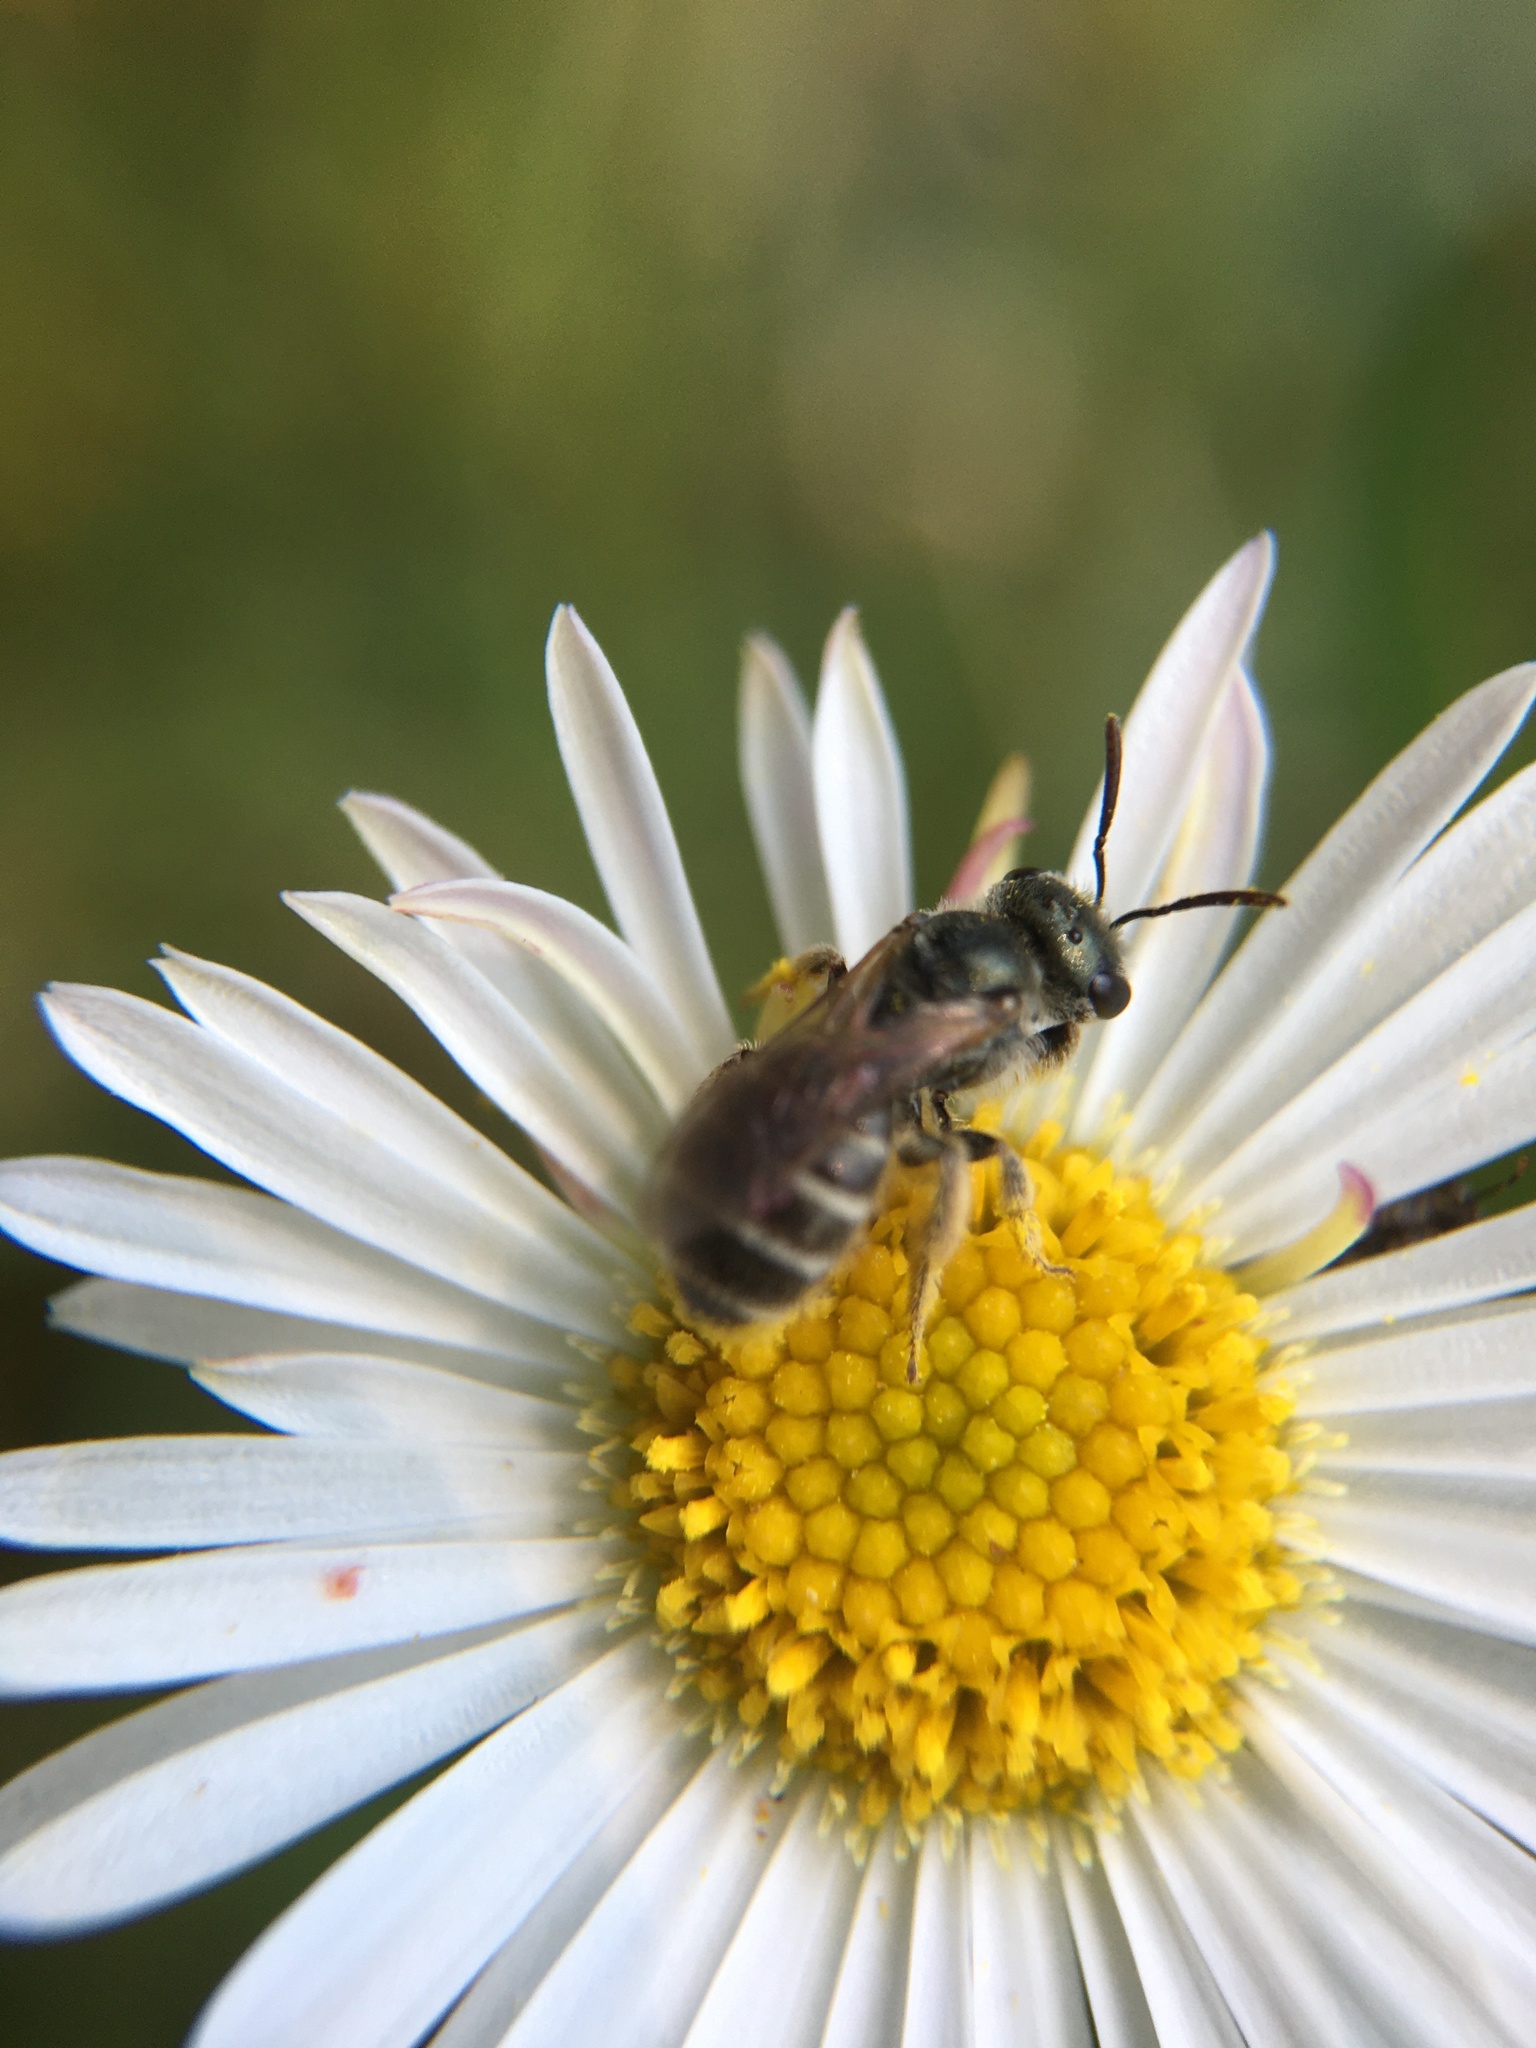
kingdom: Animalia
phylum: Arthropoda
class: Insecta
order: Hymenoptera
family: Halictidae
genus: Halictus
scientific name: Halictus tripartitus
